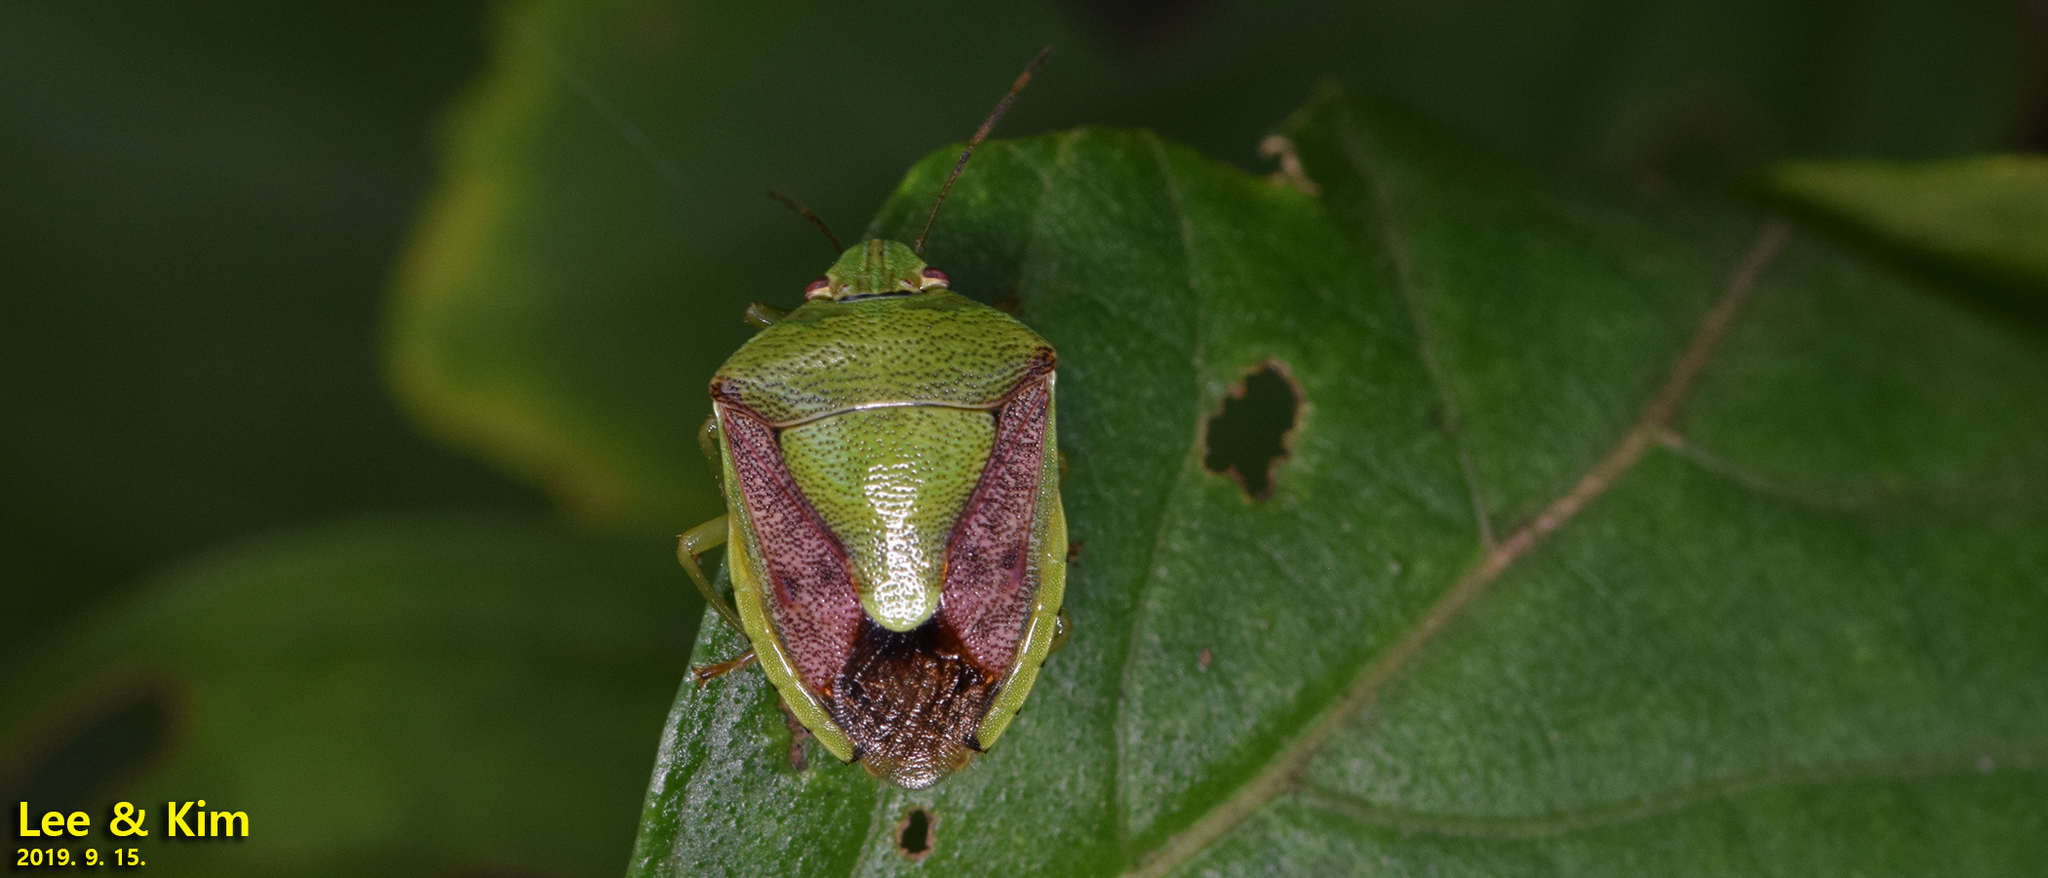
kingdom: Animalia
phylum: Arthropoda
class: Insecta
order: Hemiptera
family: Pentatomidae
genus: Plautia
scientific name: Plautia stali
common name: Stink bug
